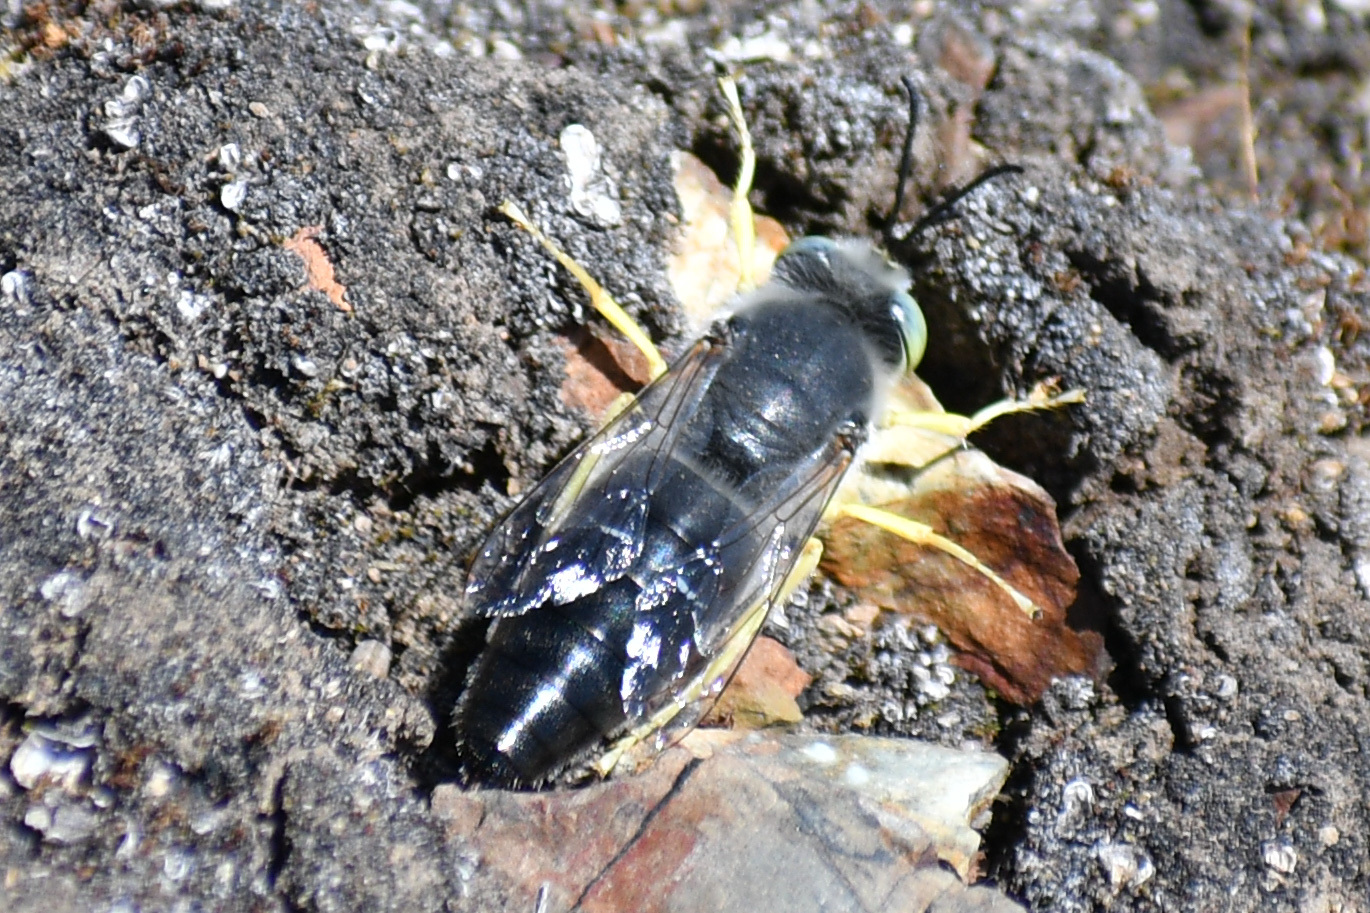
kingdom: Animalia
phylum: Arthropoda
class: Insecta
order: Hymenoptera
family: Crabronidae
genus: Bembix
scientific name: Bembix amoena
